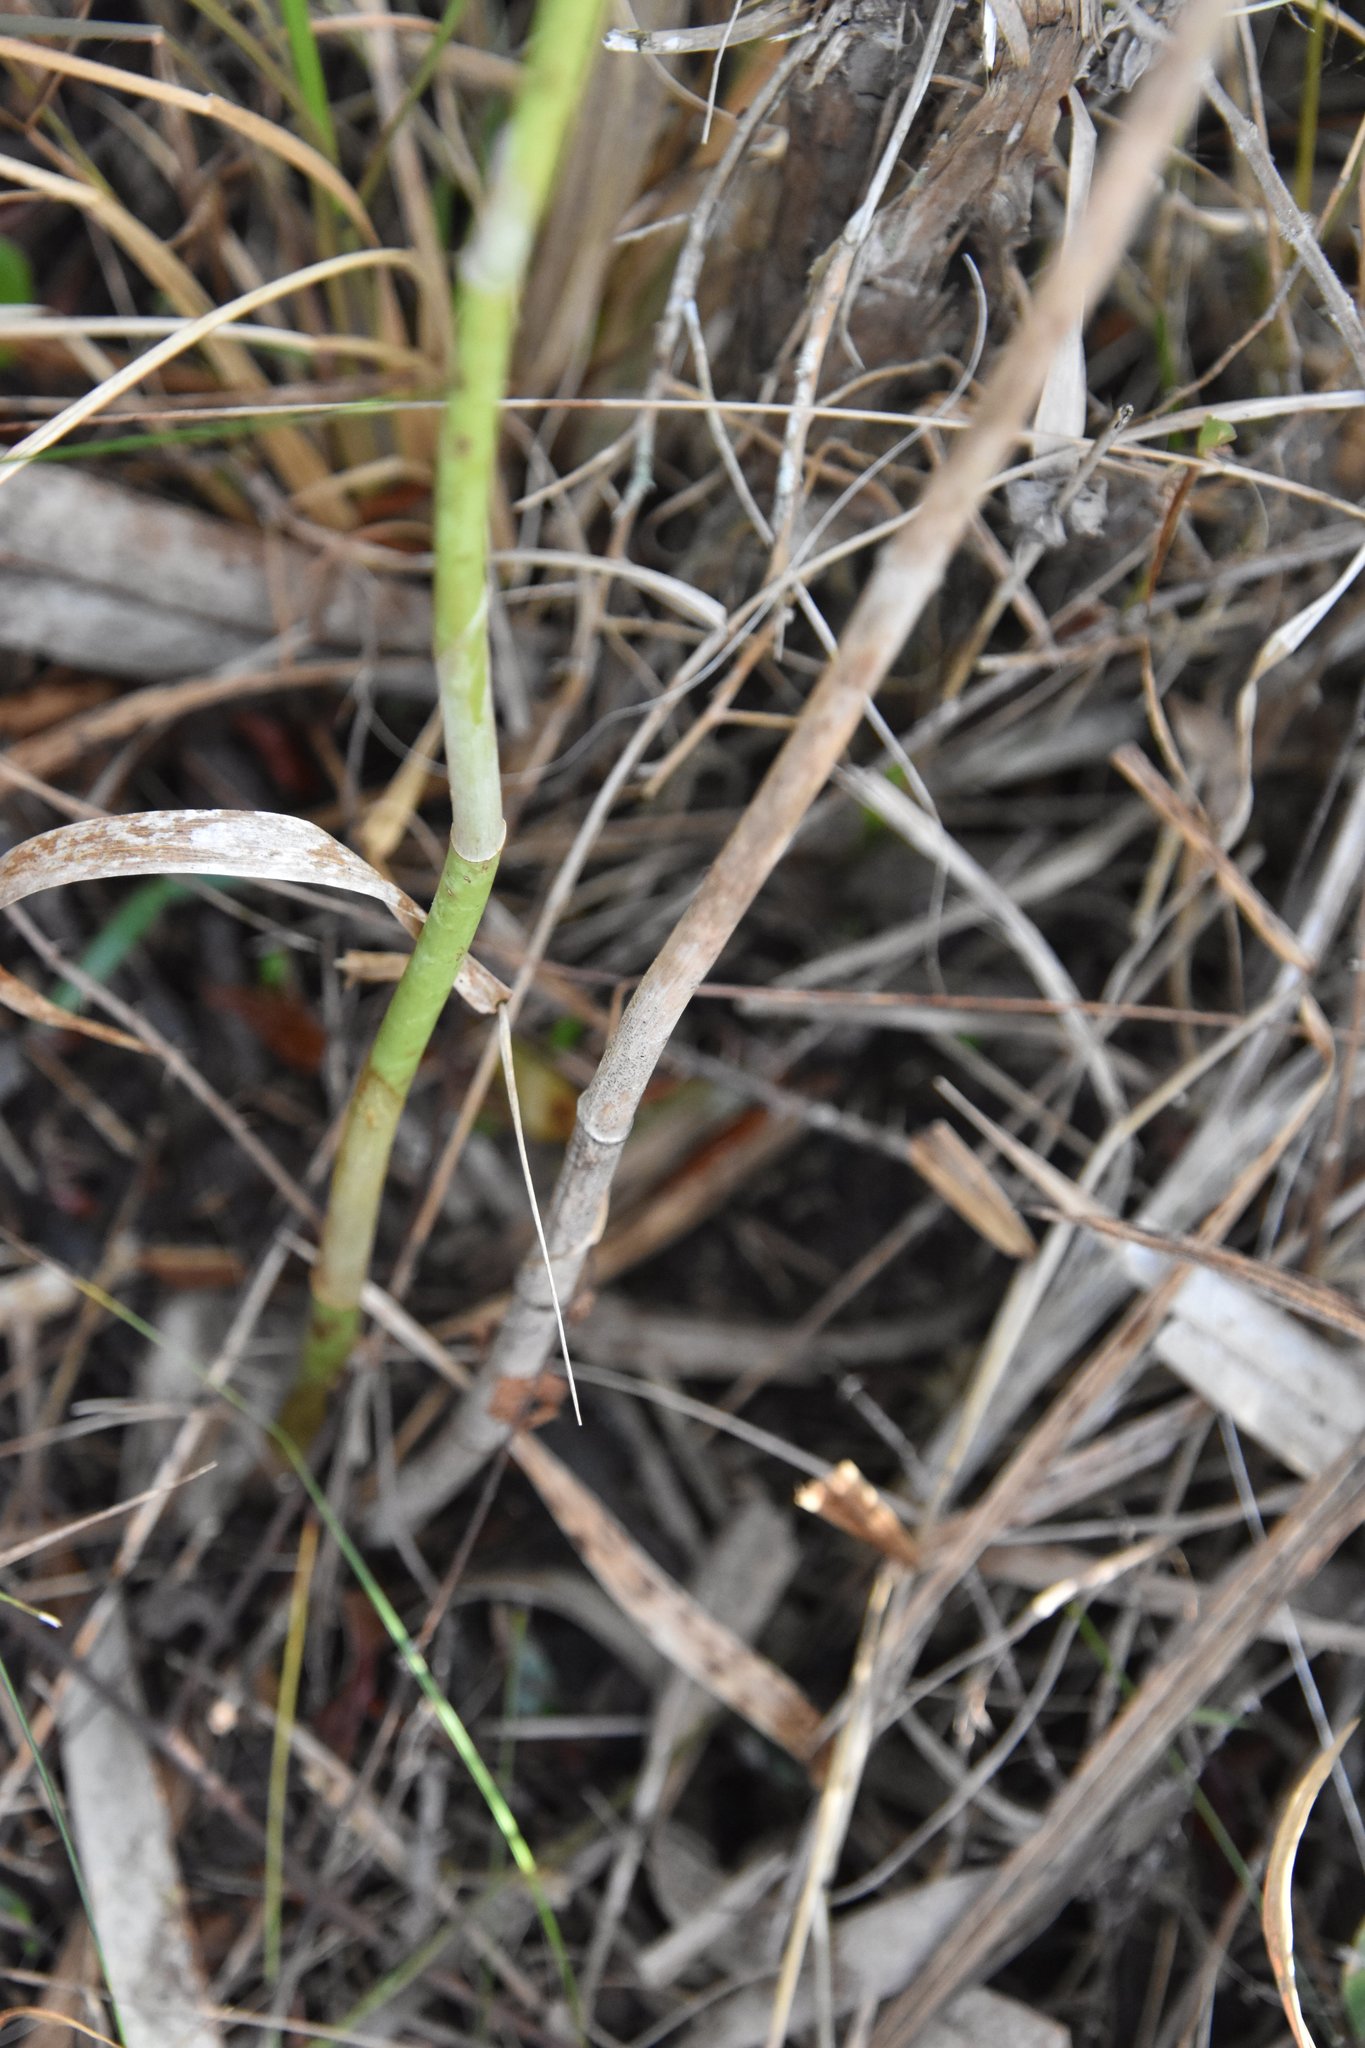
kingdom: Plantae
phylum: Tracheophyta
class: Liliopsida
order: Asparagales
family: Orchidaceae
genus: Eulophia
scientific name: Eulophia graminea
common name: Orchid
